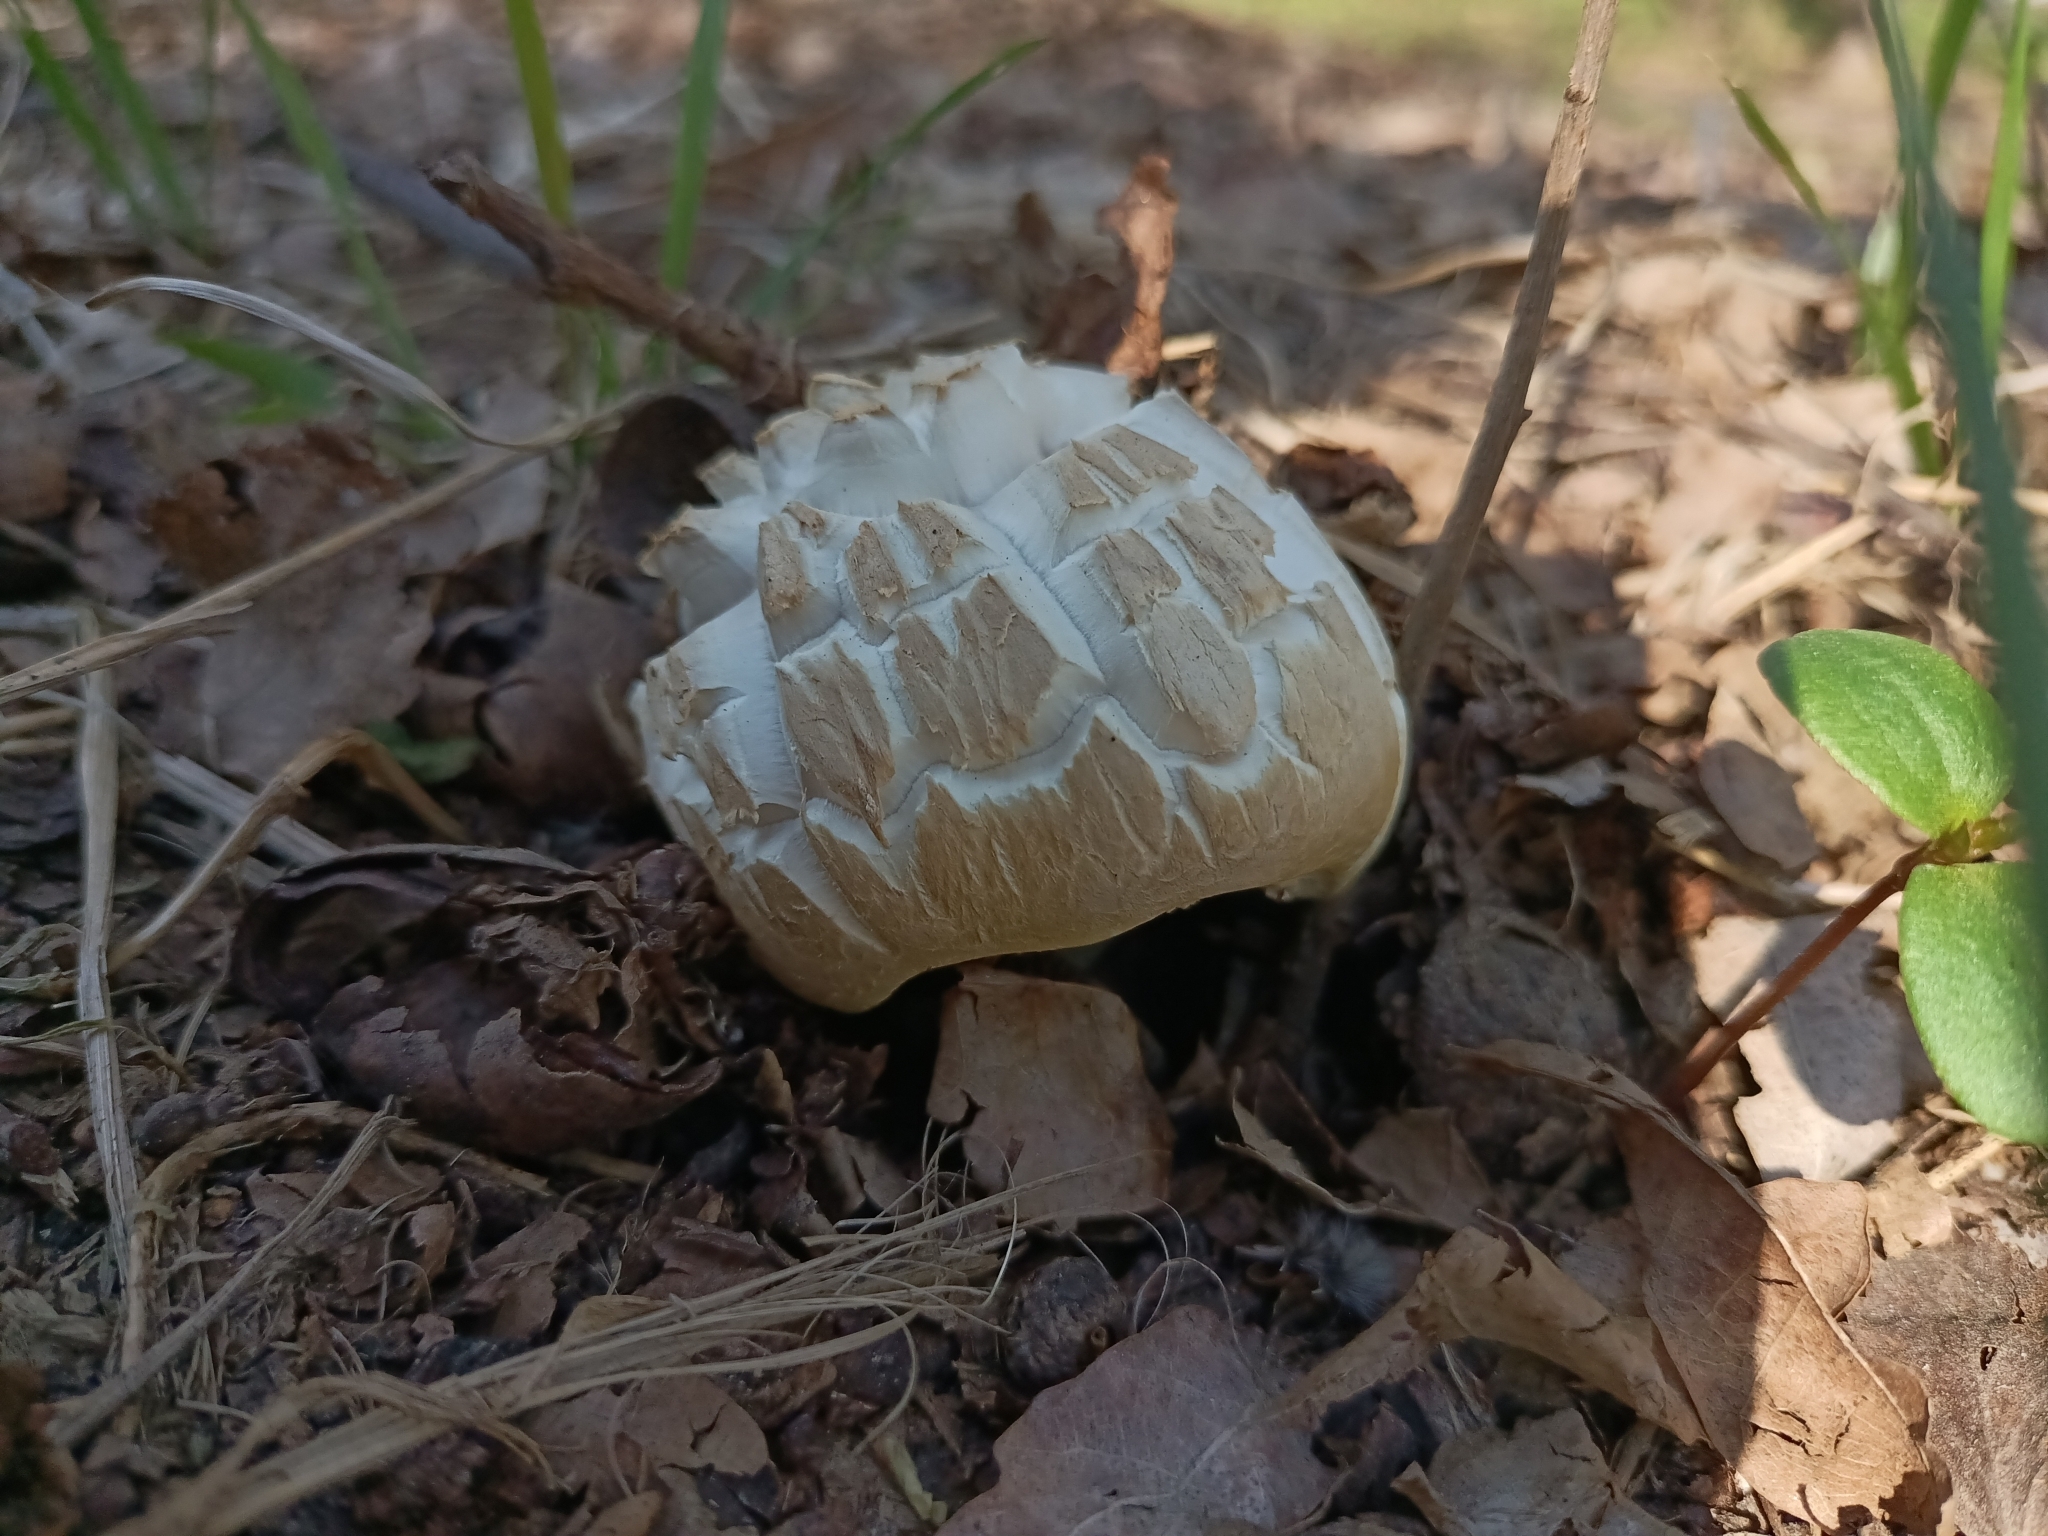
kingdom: Fungi
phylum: Basidiomycota
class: Agaricomycetes
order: Agaricales
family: Strophariaceae
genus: Agrocybe
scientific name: Agrocybe praecox
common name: Spring fieldcap
